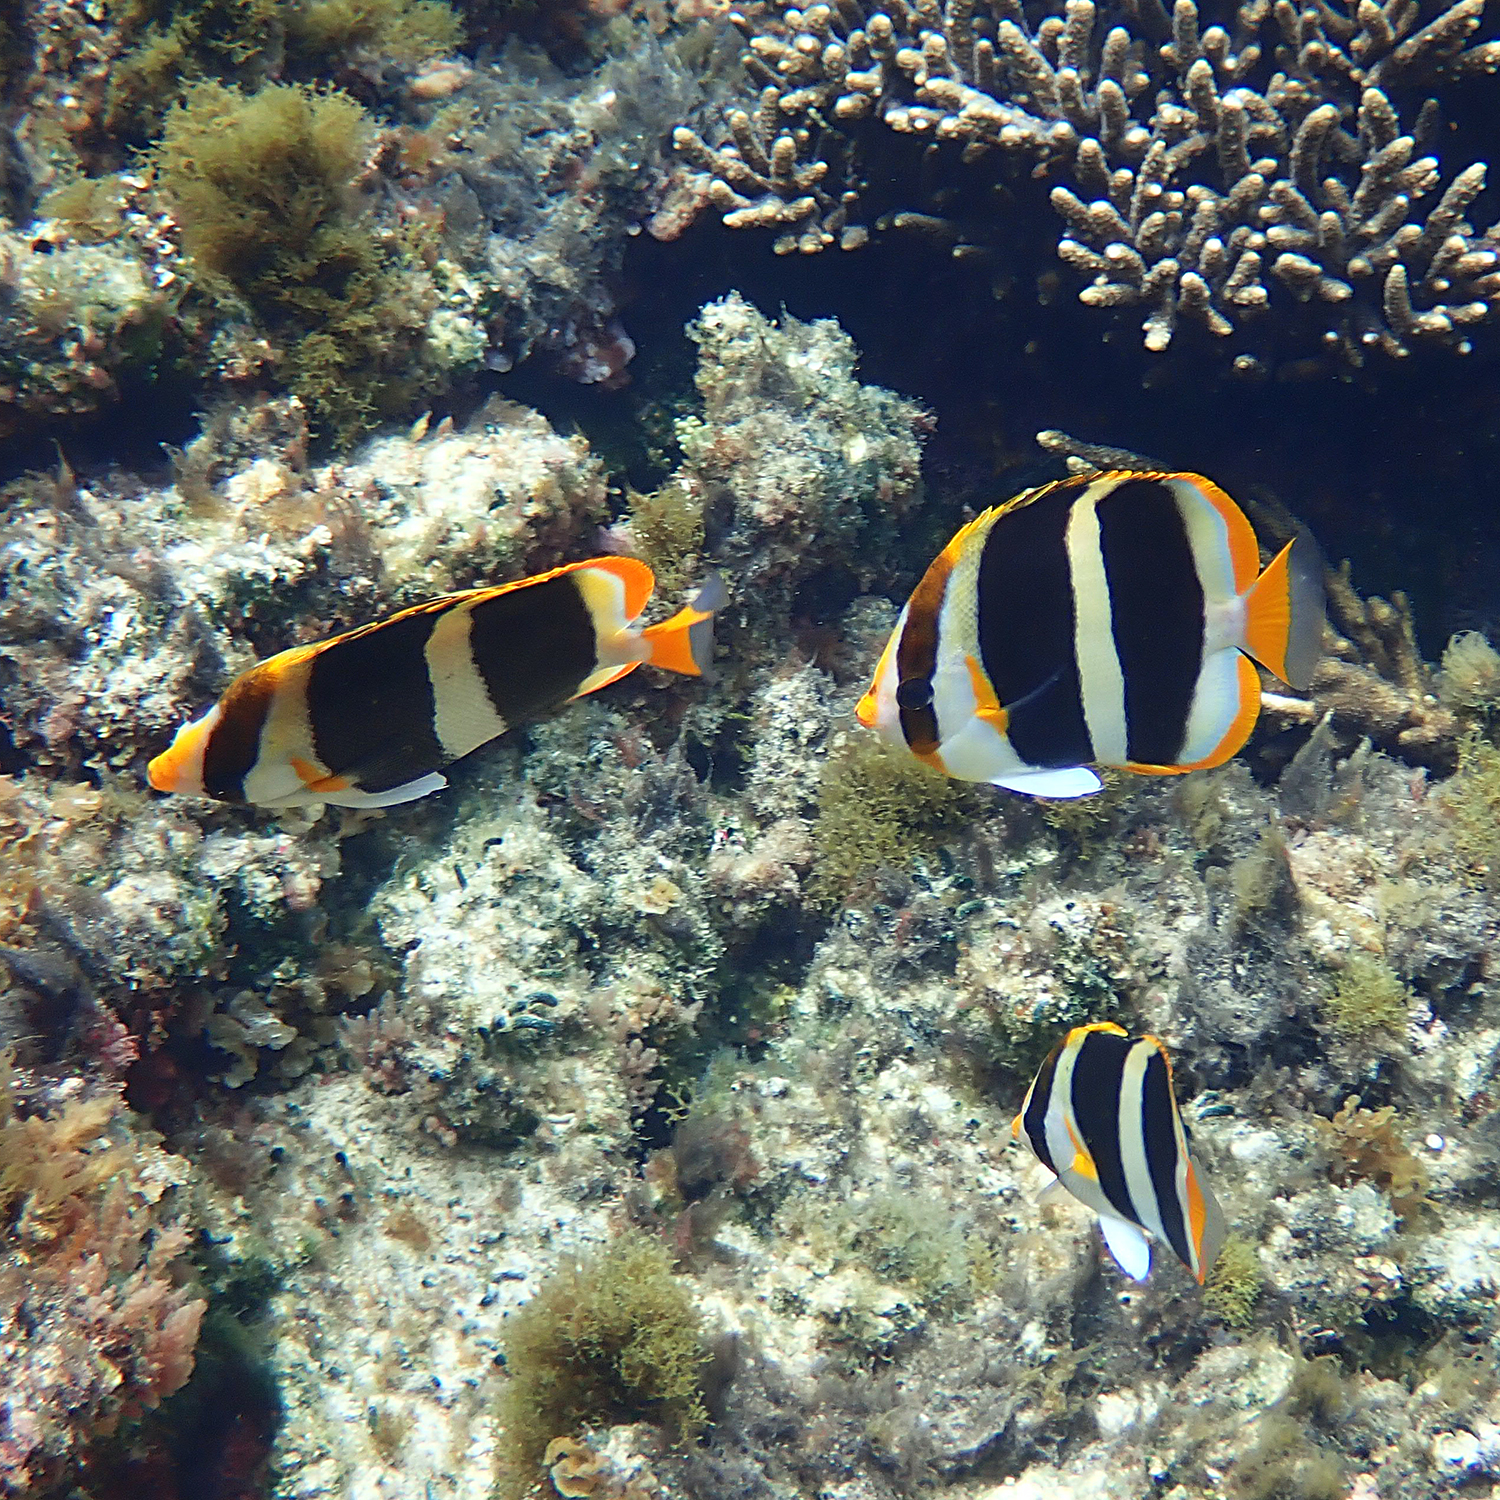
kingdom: Animalia
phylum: Chordata
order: Perciformes
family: Chaetodontidae
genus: Chaetodon
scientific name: Chaetodon tricinctus
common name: Three-striped butterflyfish
